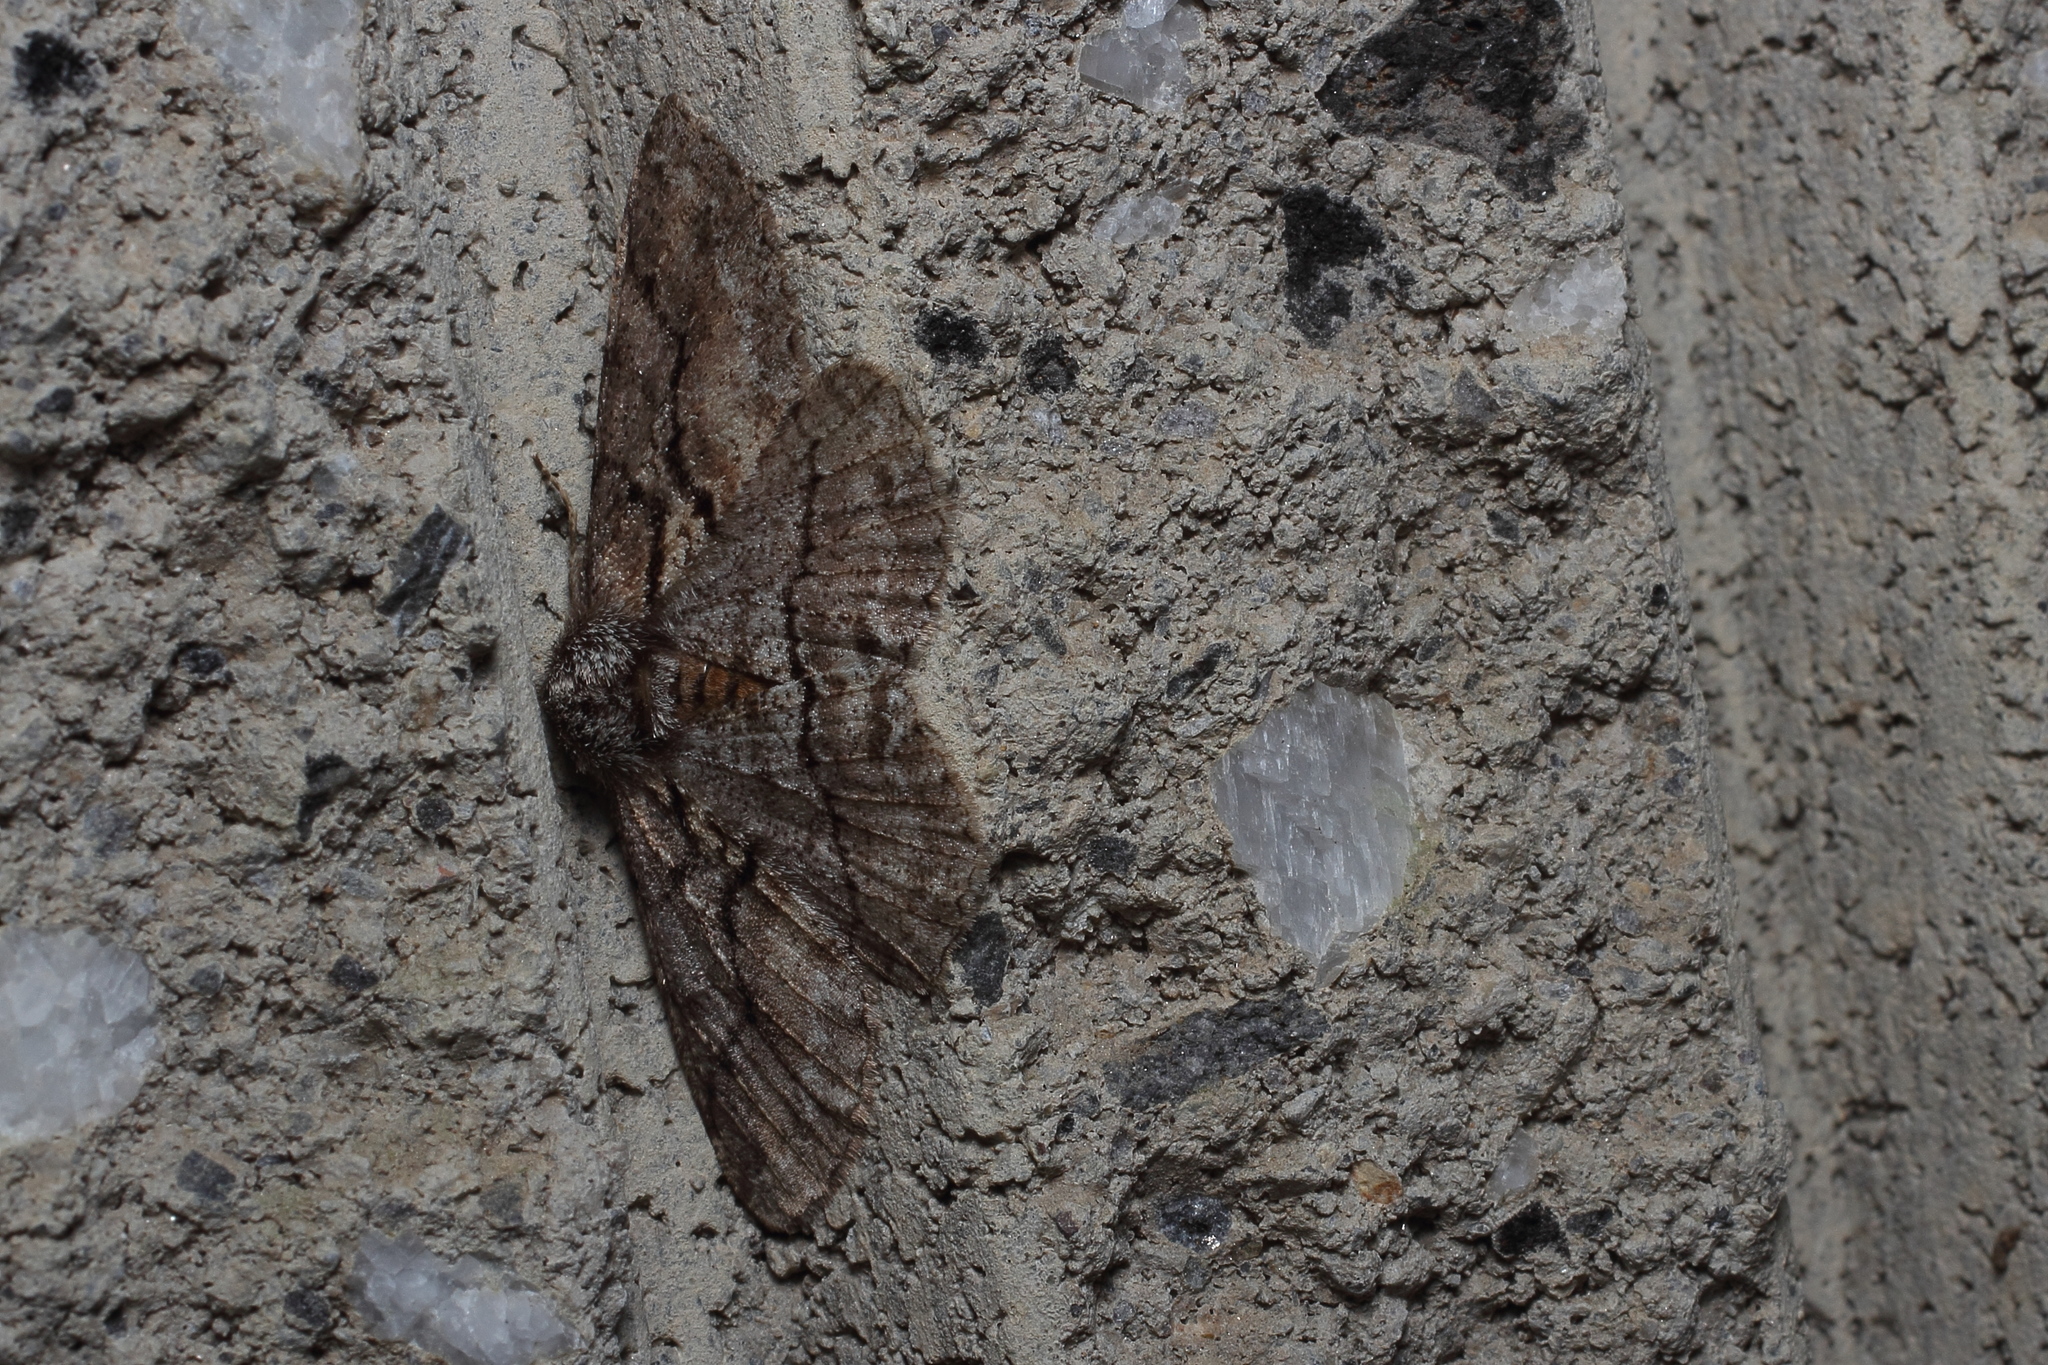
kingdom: Animalia
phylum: Arthropoda
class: Insecta
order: Lepidoptera
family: Geometridae
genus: Megabiston
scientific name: Megabiston plumosaria
